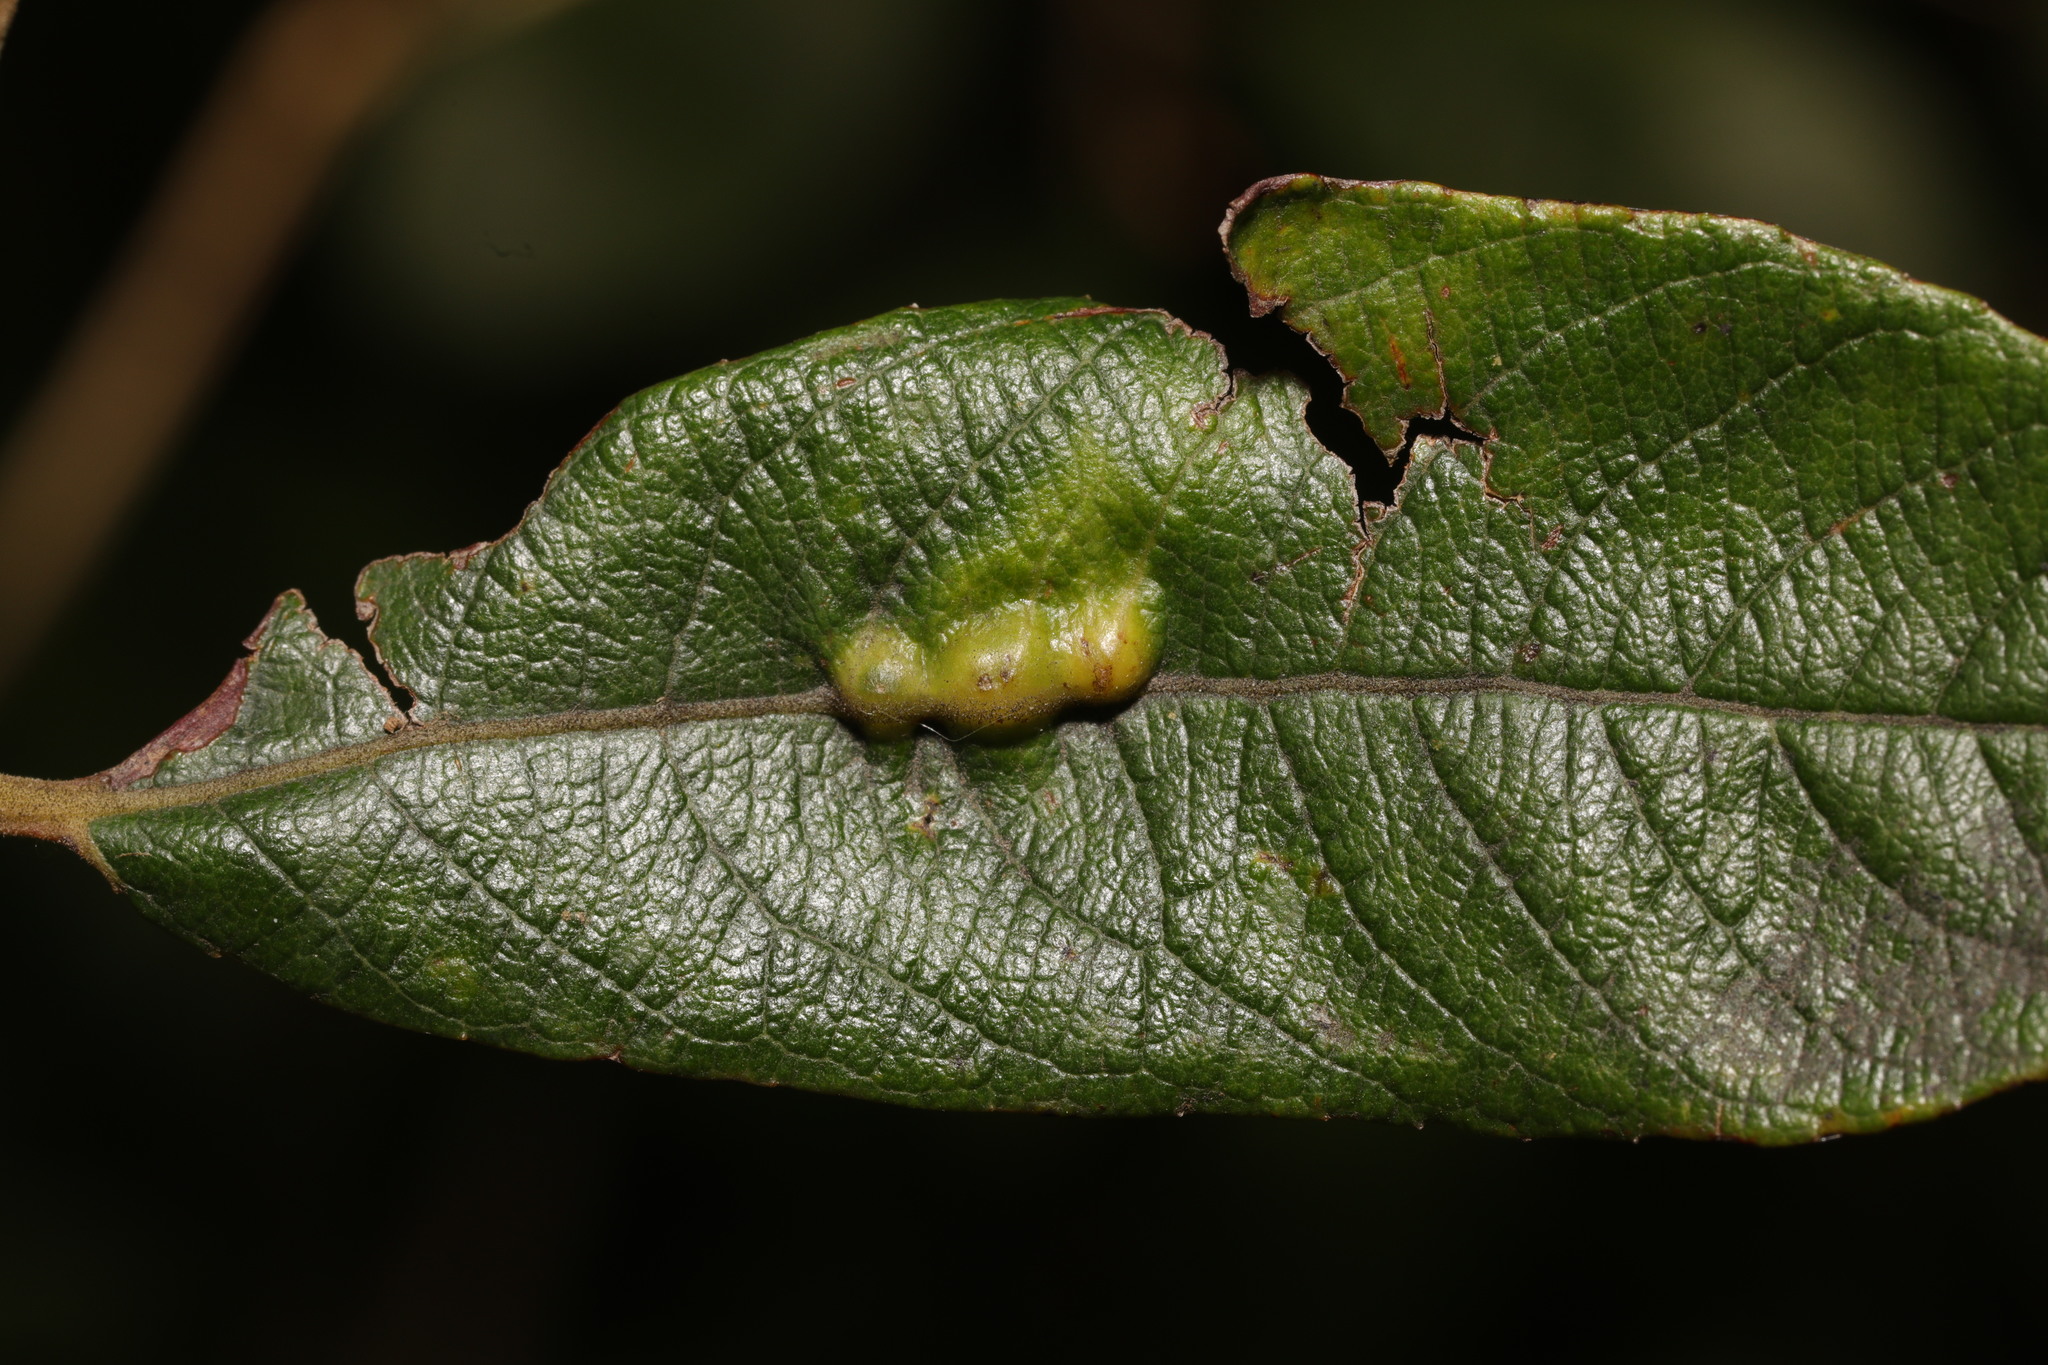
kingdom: Animalia
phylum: Arthropoda
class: Insecta
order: Diptera
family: Cecidomyiidae
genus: Iteomyia
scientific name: Iteomyia major
